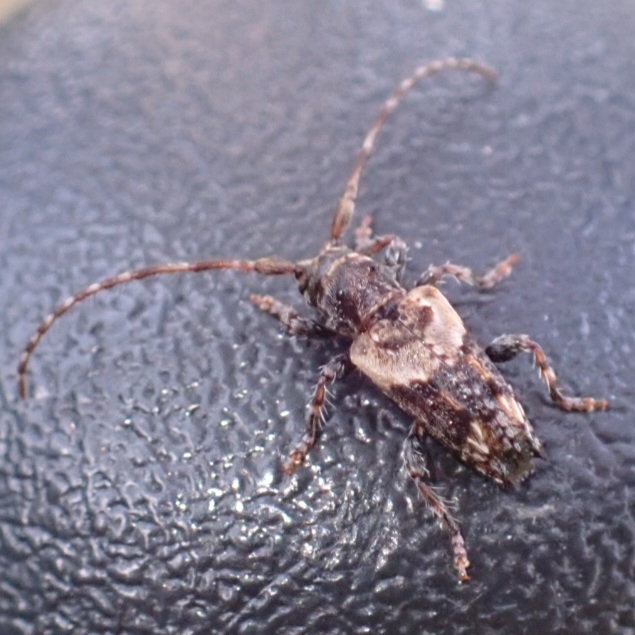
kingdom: Animalia
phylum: Arthropoda
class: Insecta
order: Coleoptera
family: Cerambycidae
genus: Pogonocherus
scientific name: Pogonocherus hispidus
